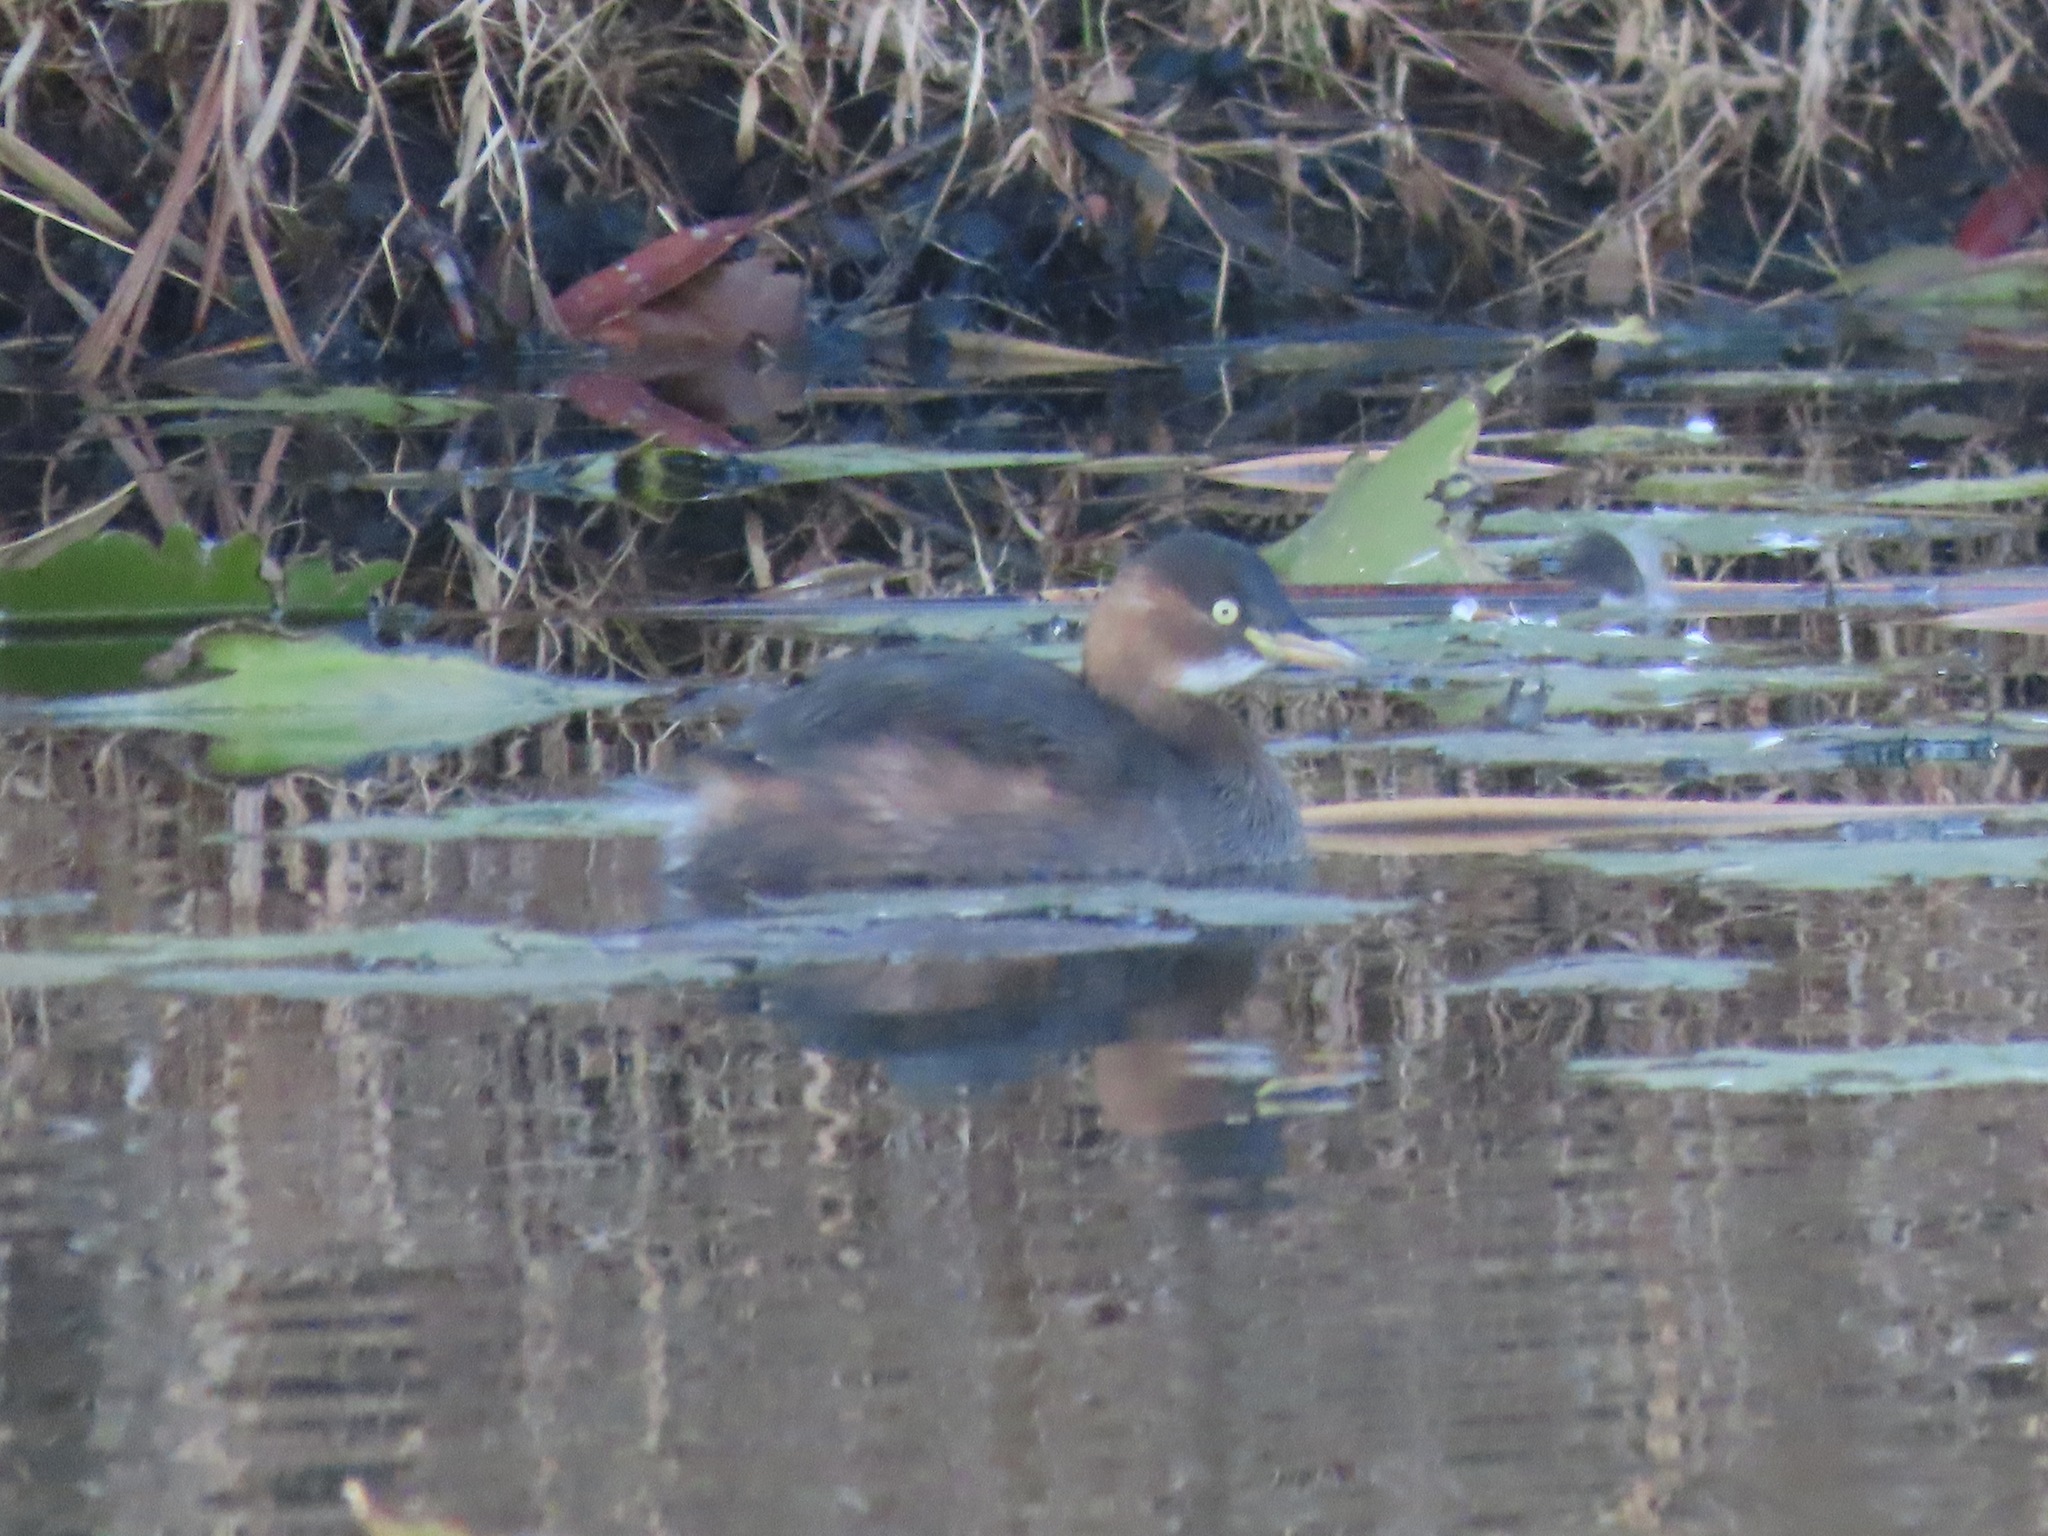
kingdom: Animalia
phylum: Chordata
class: Aves
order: Podicipediformes
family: Podicipedidae
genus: Tachybaptus
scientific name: Tachybaptus ruficollis
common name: Little grebe
